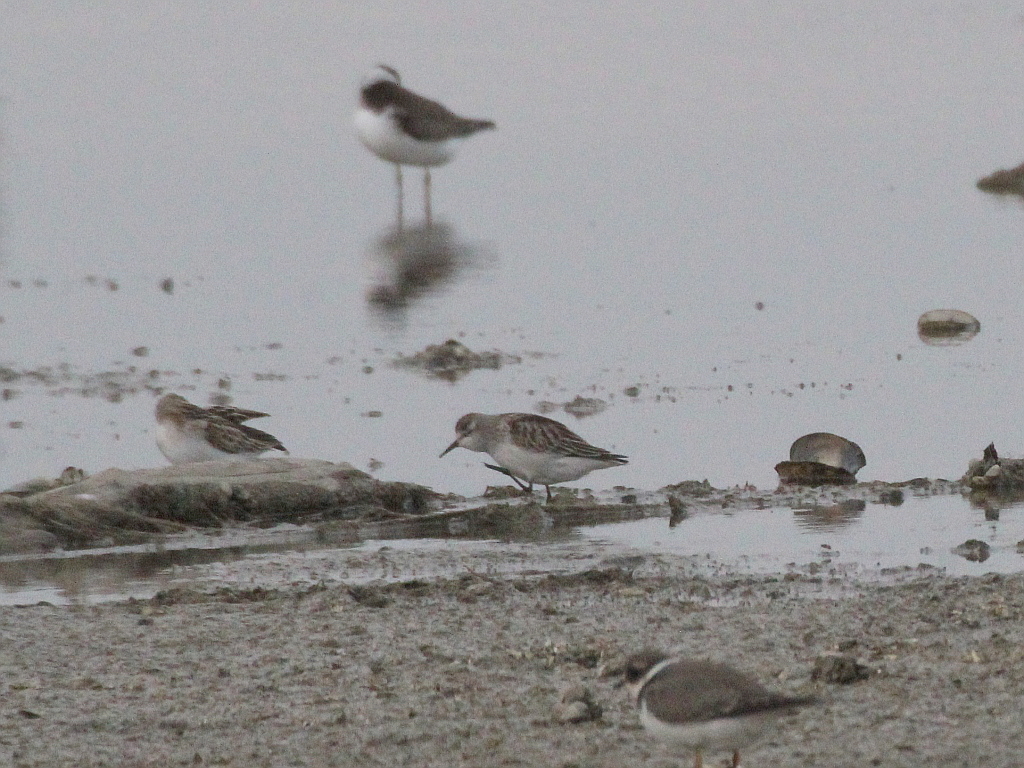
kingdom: Animalia
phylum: Chordata
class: Aves
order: Charadriiformes
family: Scolopacidae
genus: Calidris
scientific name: Calidris minuta
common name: Little stint
